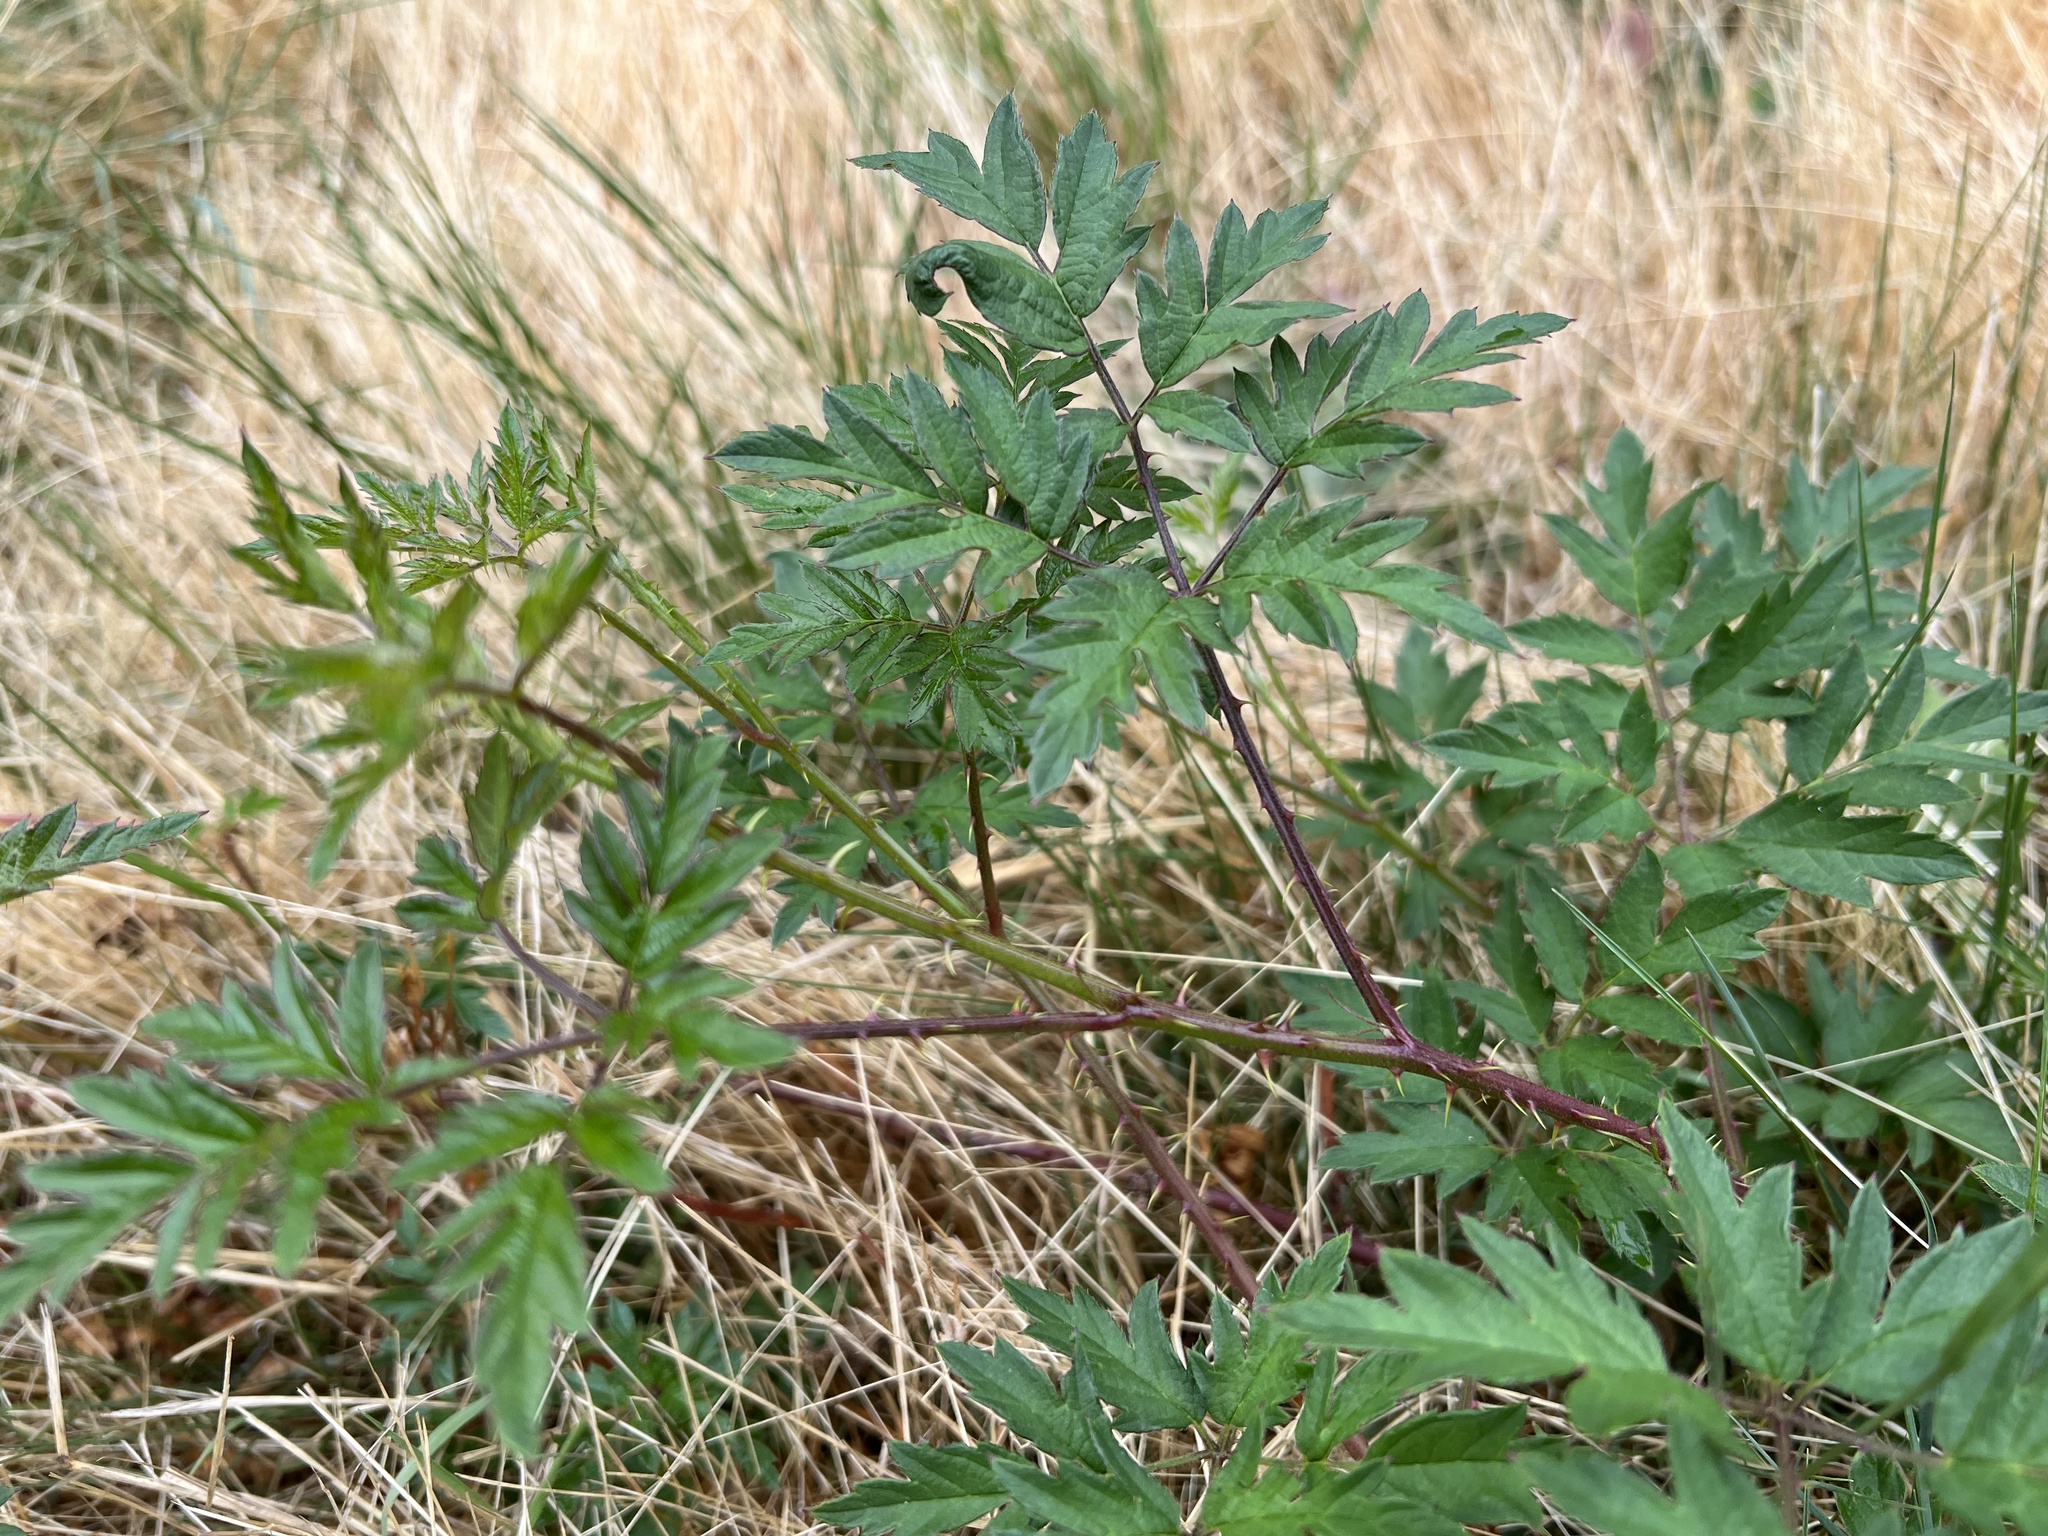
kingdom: Plantae
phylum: Tracheophyta
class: Magnoliopsida
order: Rosales
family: Rosaceae
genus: Rubus
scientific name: Rubus laciniatus
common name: Evergreen blackberry
